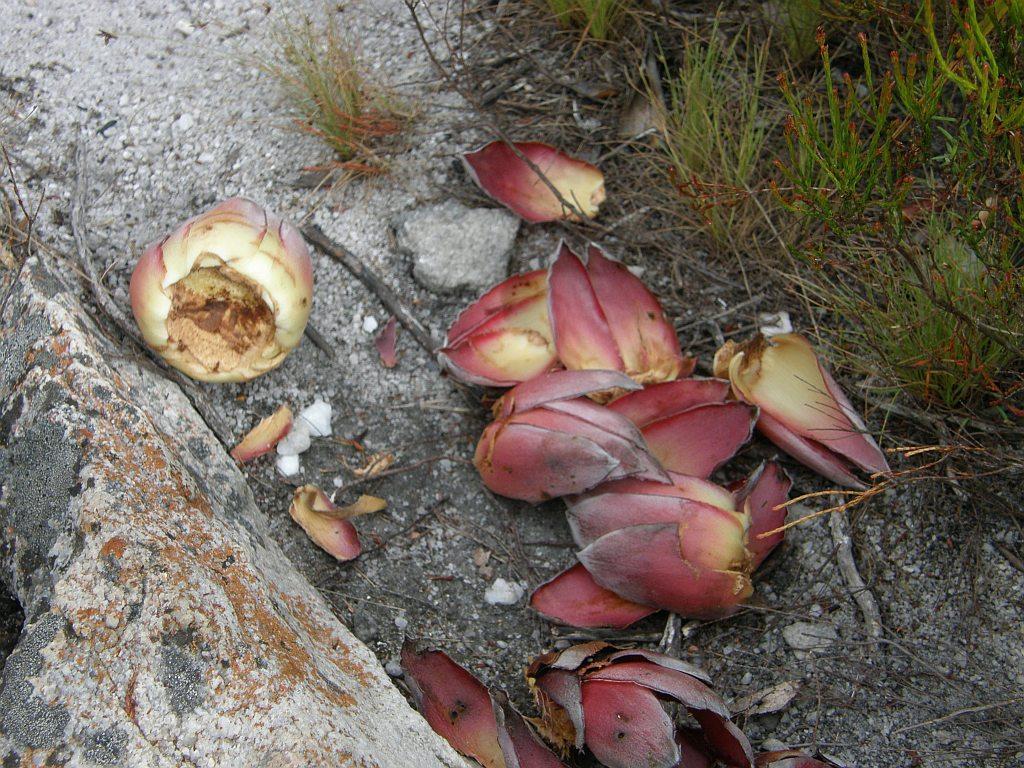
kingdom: Plantae
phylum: Tracheophyta
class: Magnoliopsida
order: Proteales
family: Proteaceae
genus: Protea
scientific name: Protea cynaroides
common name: King protea
